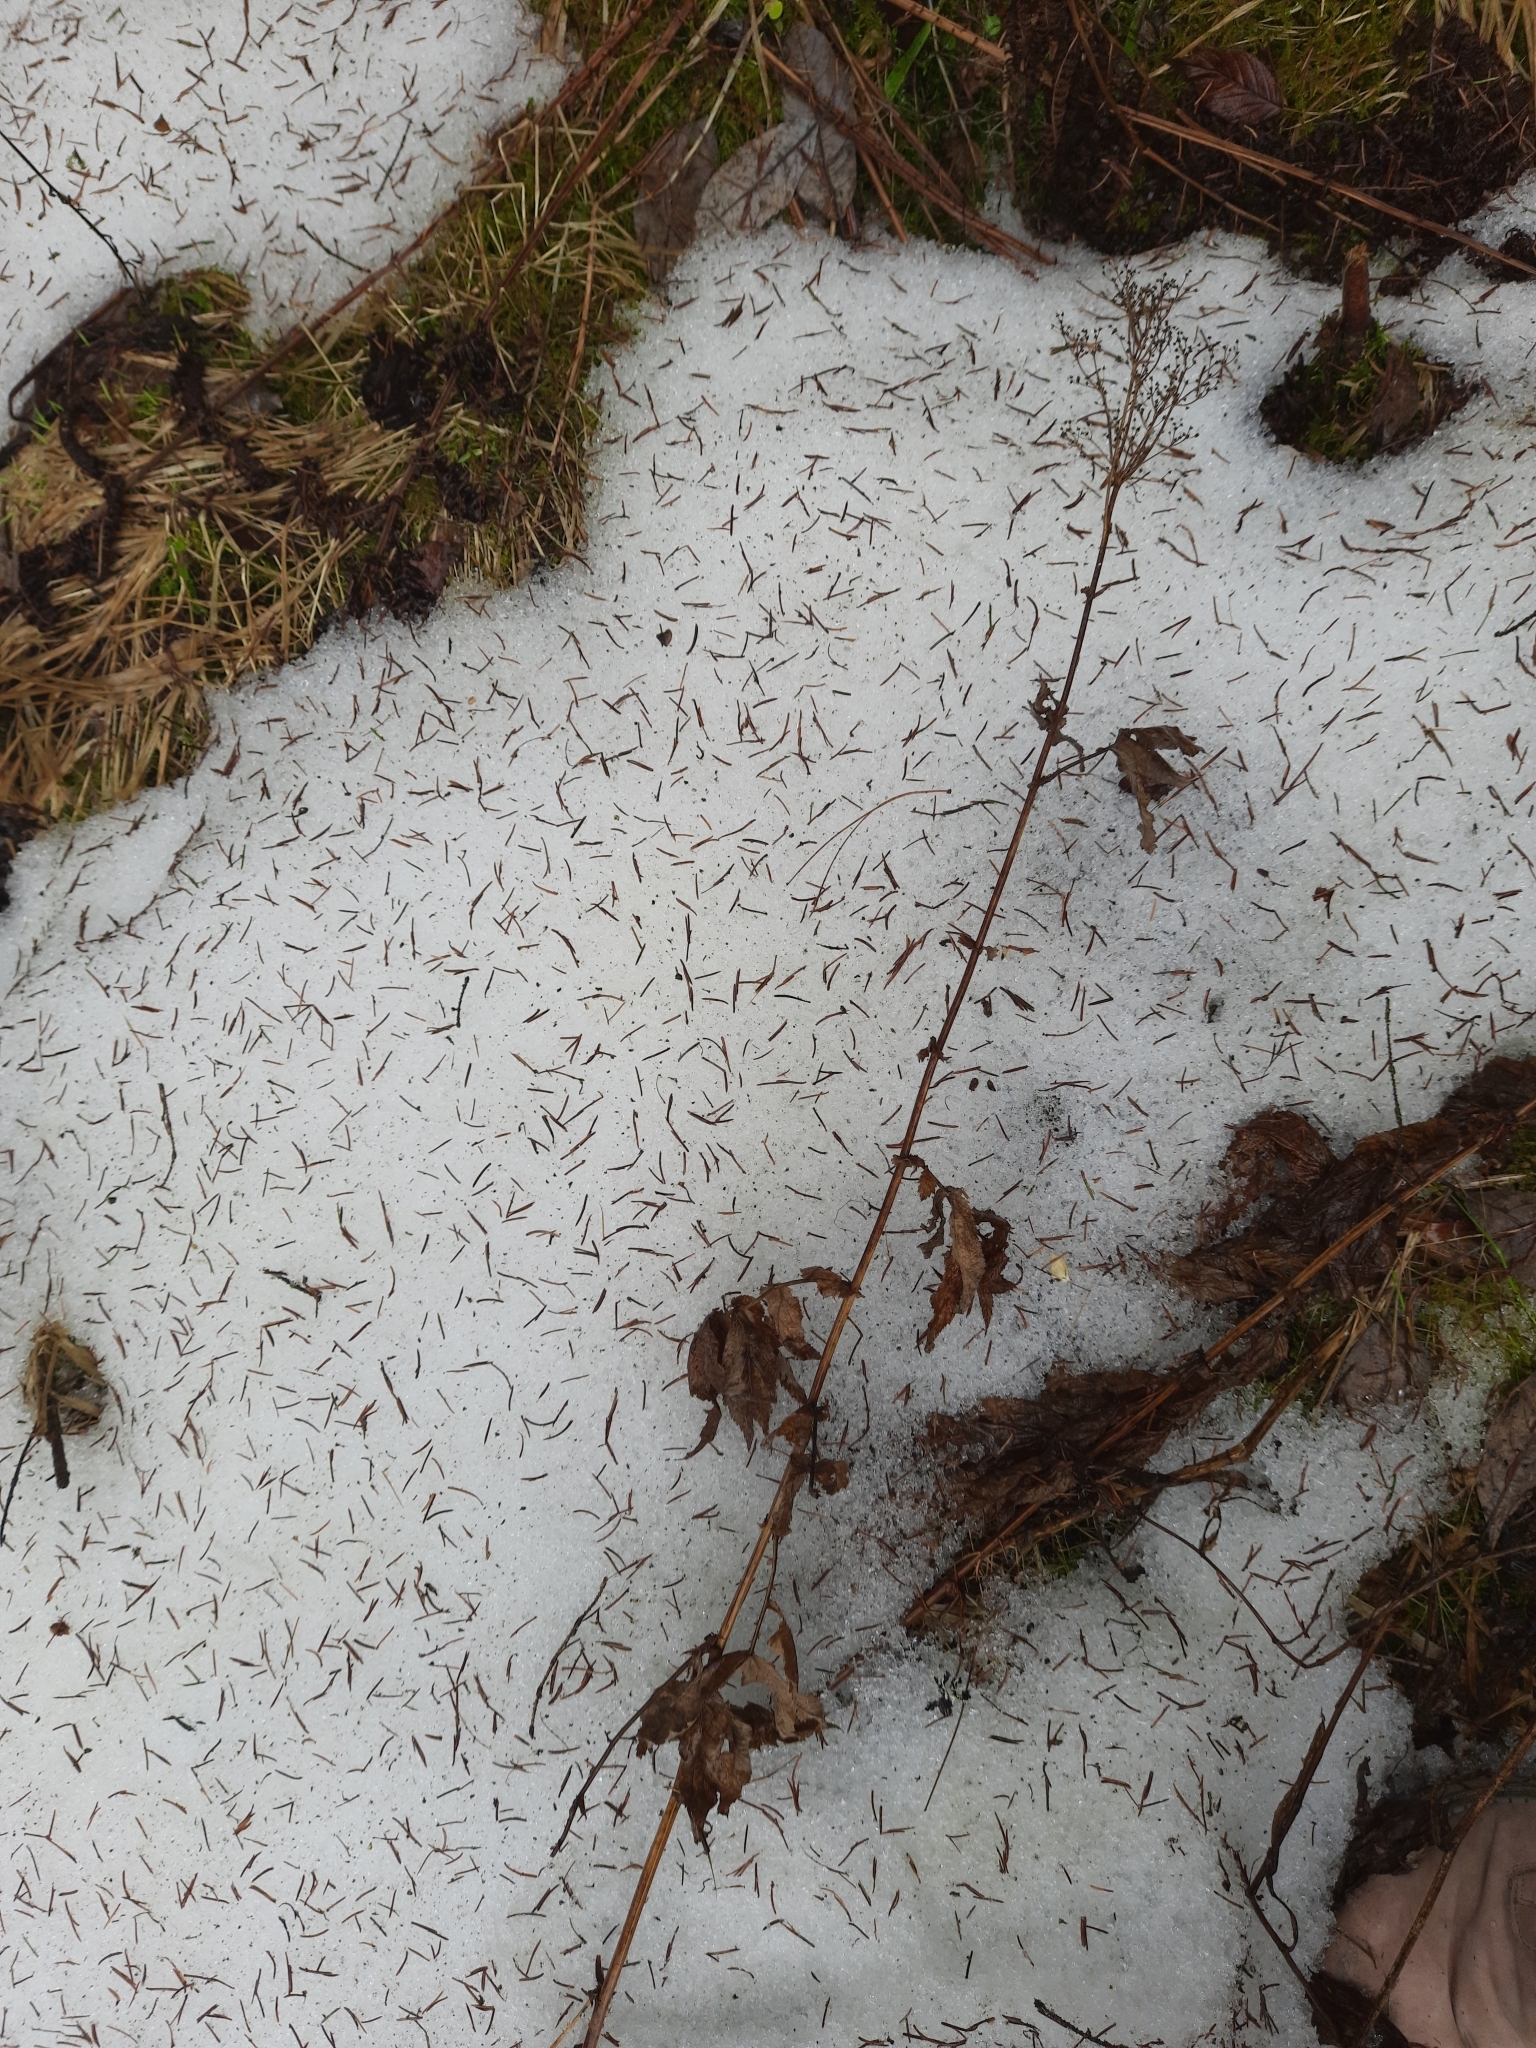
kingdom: Plantae
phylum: Tracheophyta
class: Magnoliopsida
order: Rosales
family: Rosaceae
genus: Filipendula
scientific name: Filipendula ulmaria
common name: Meadowsweet
